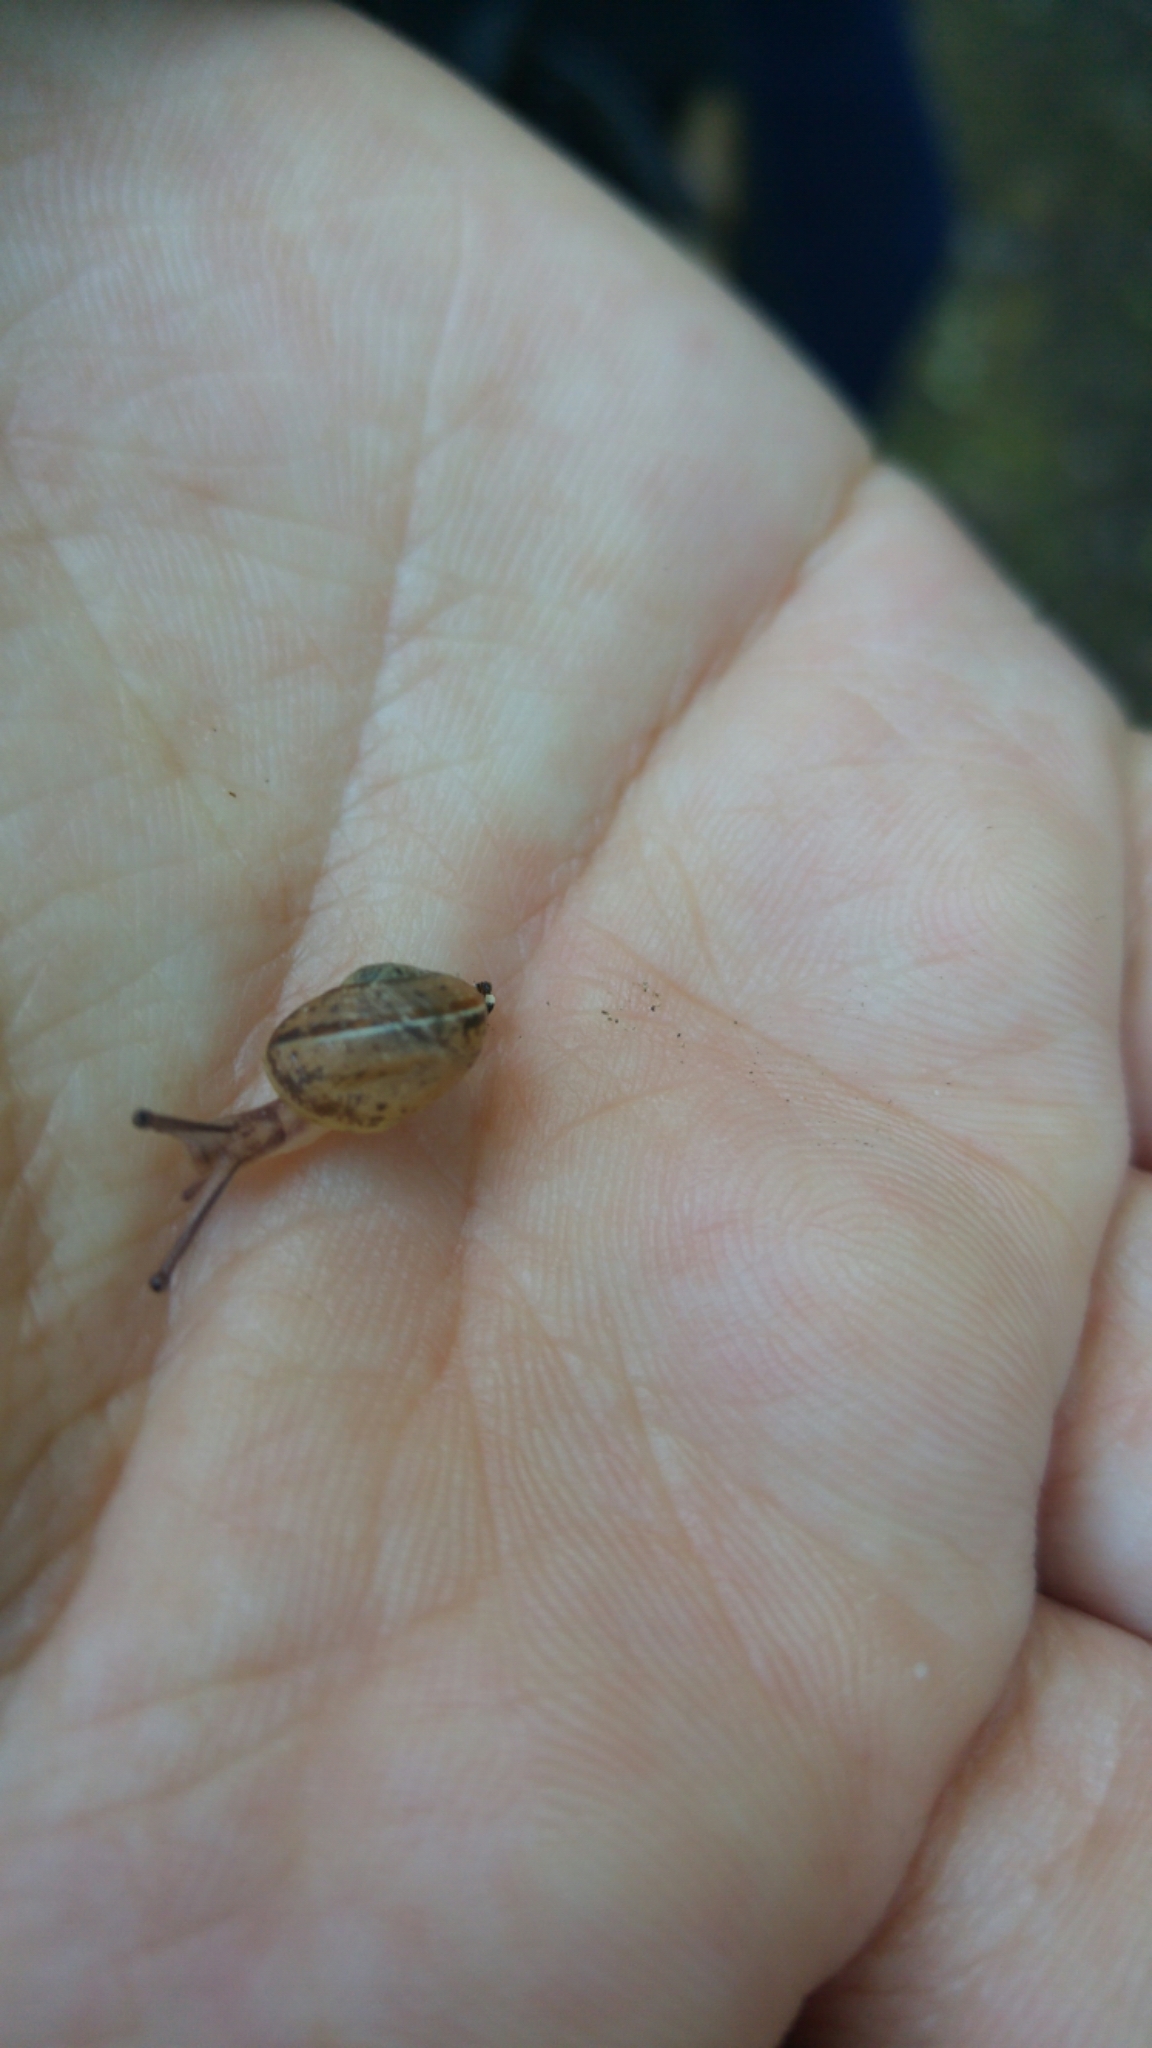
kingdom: Animalia
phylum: Mollusca
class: Gastropoda
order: Stylommatophora
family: Helicidae
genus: Cornu
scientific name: Cornu aspersum
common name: Brown garden snail
